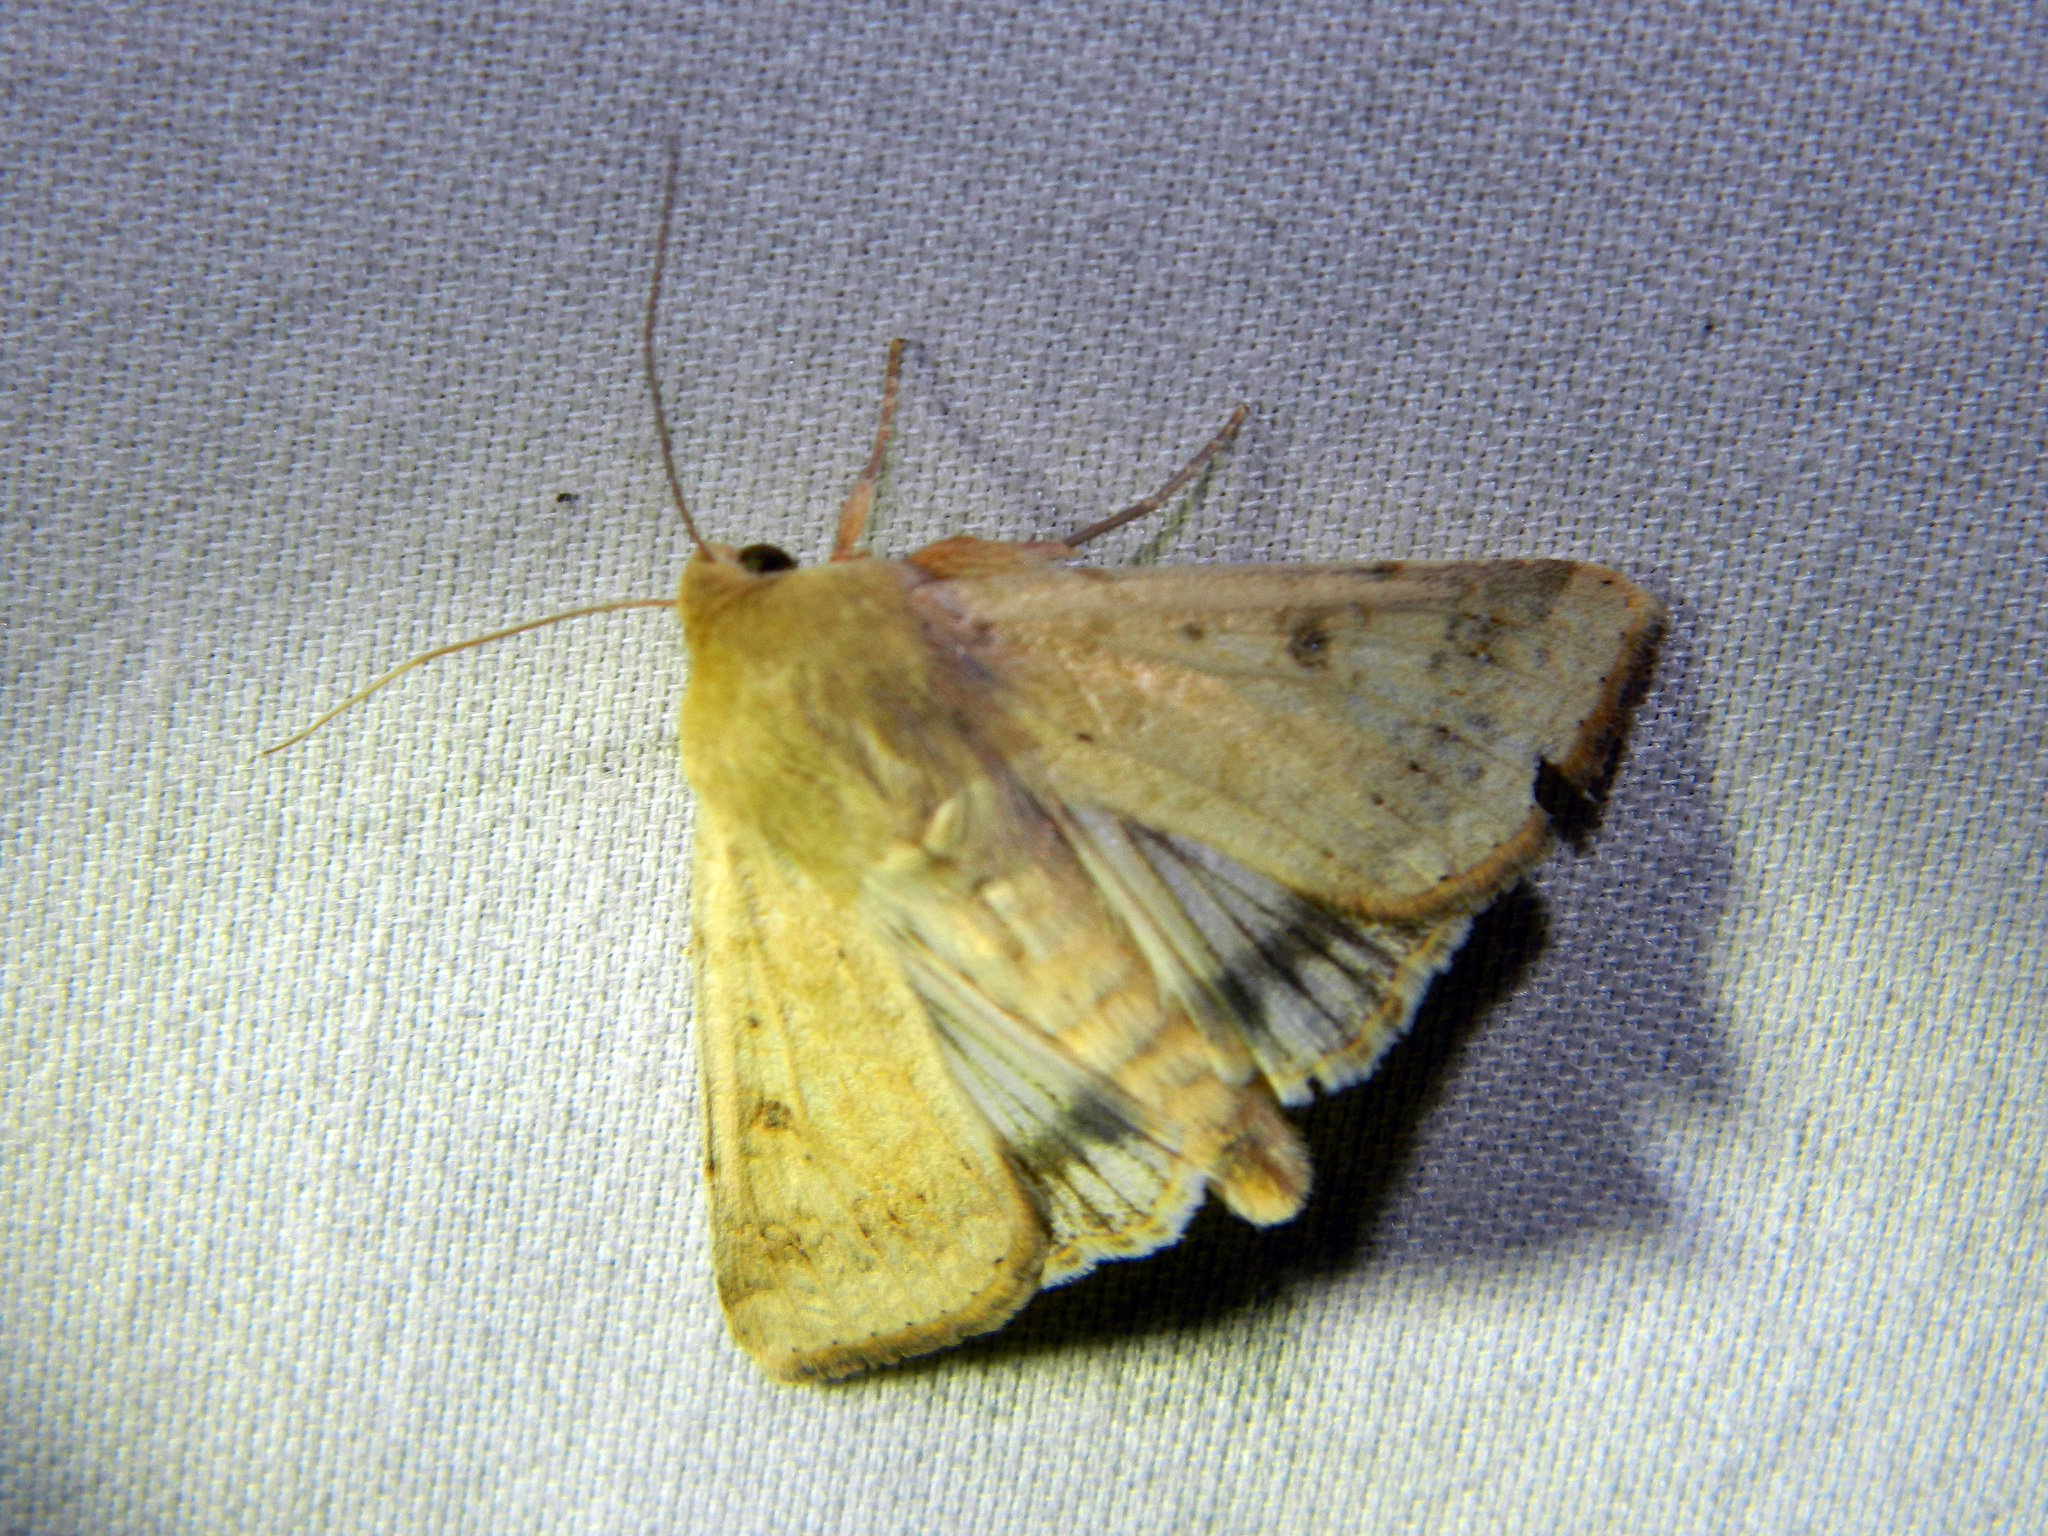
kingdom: Animalia
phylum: Arthropoda
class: Insecta
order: Lepidoptera
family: Noctuidae
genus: Helicoverpa
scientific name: Helicoverpa zea
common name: Bollworm
